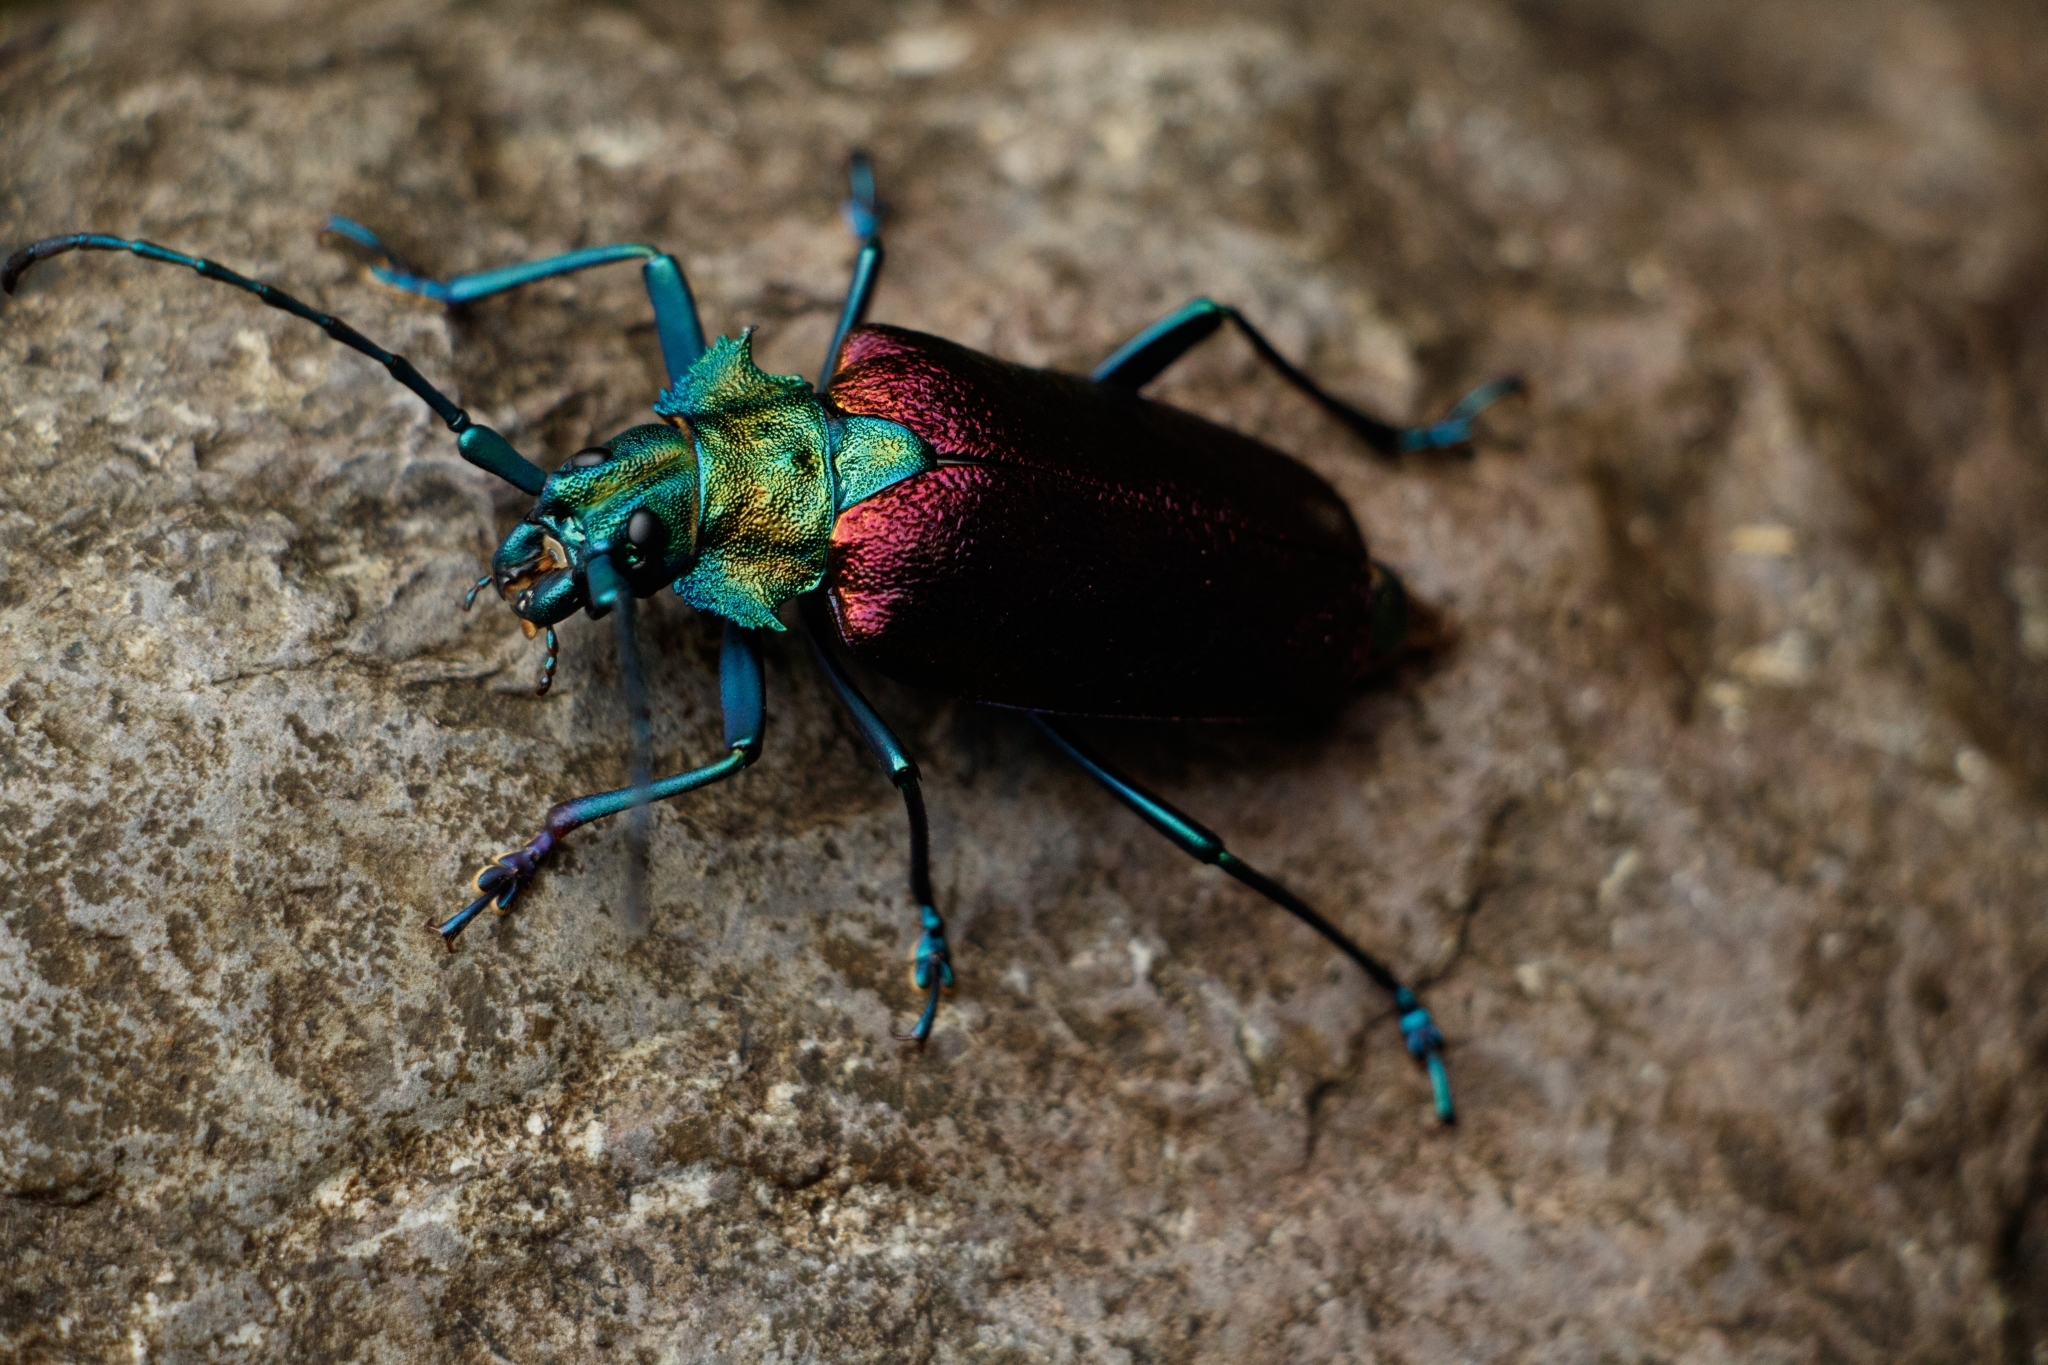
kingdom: Animalia
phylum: Arthropoda
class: Insecta
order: Coleoptera
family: Cerambycidae
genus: Pyrodes
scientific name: Pyrodes nitidus
